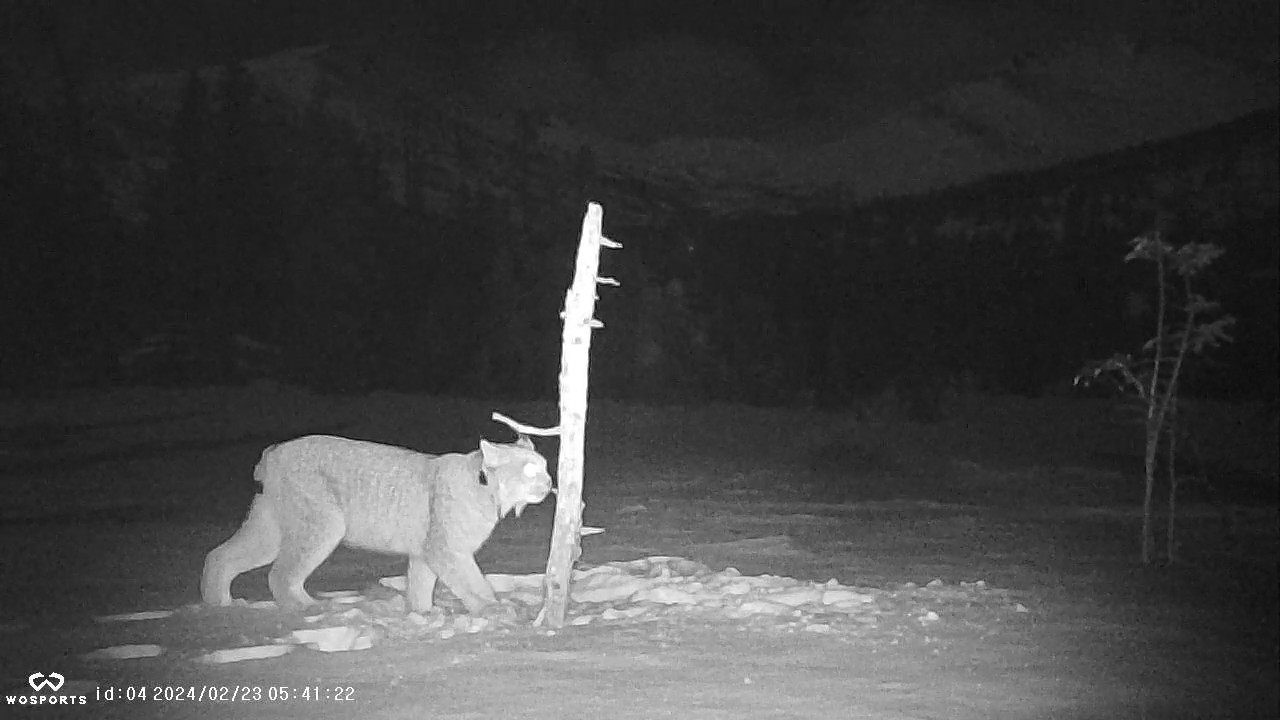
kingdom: Animalia
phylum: Chordata
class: Mammalia
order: Carnivora
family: Felidae
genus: Lynx
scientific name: Lynx canadensis
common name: Canadian lynx
